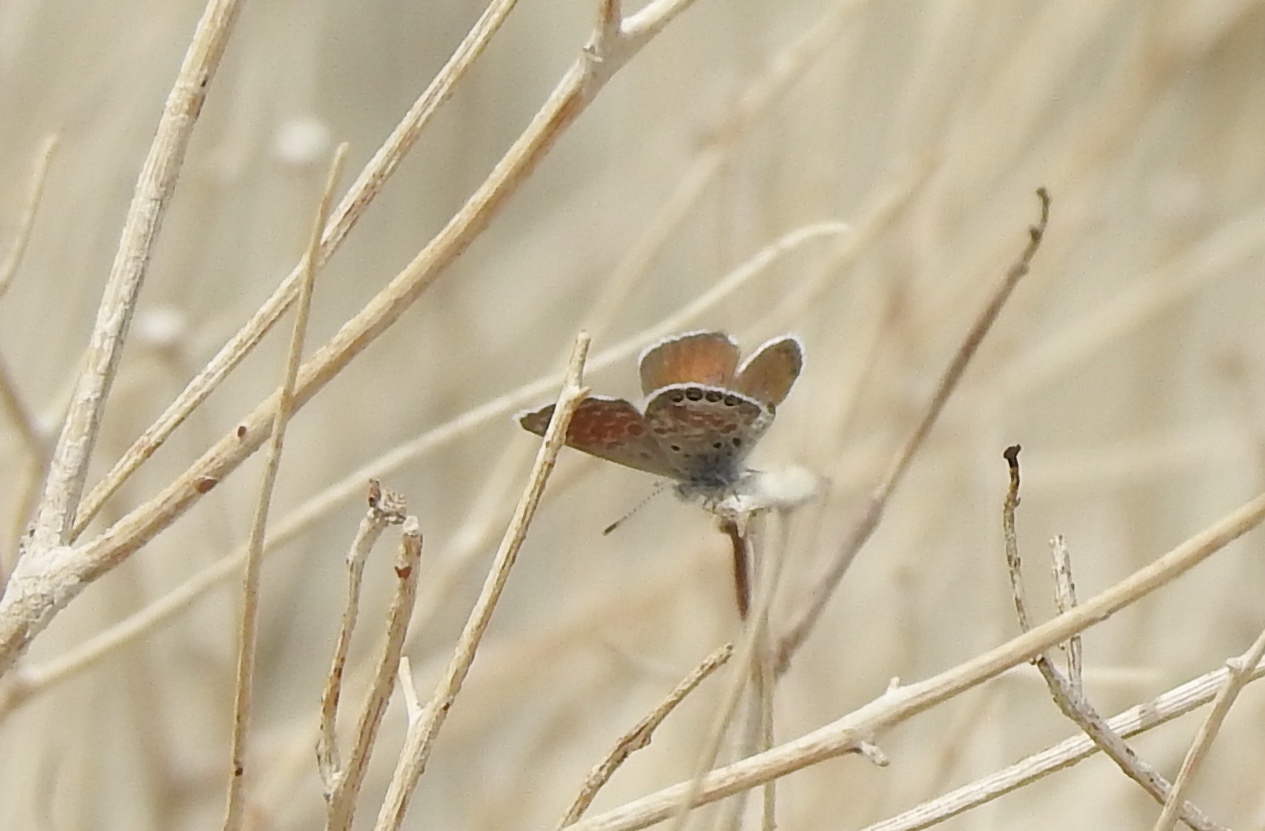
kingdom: Animalia
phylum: Arthropoda
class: Insecta
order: Lepidoptera
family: Lycaenidae
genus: Brephidium
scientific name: Brephidium exilis
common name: Pygmy blue
